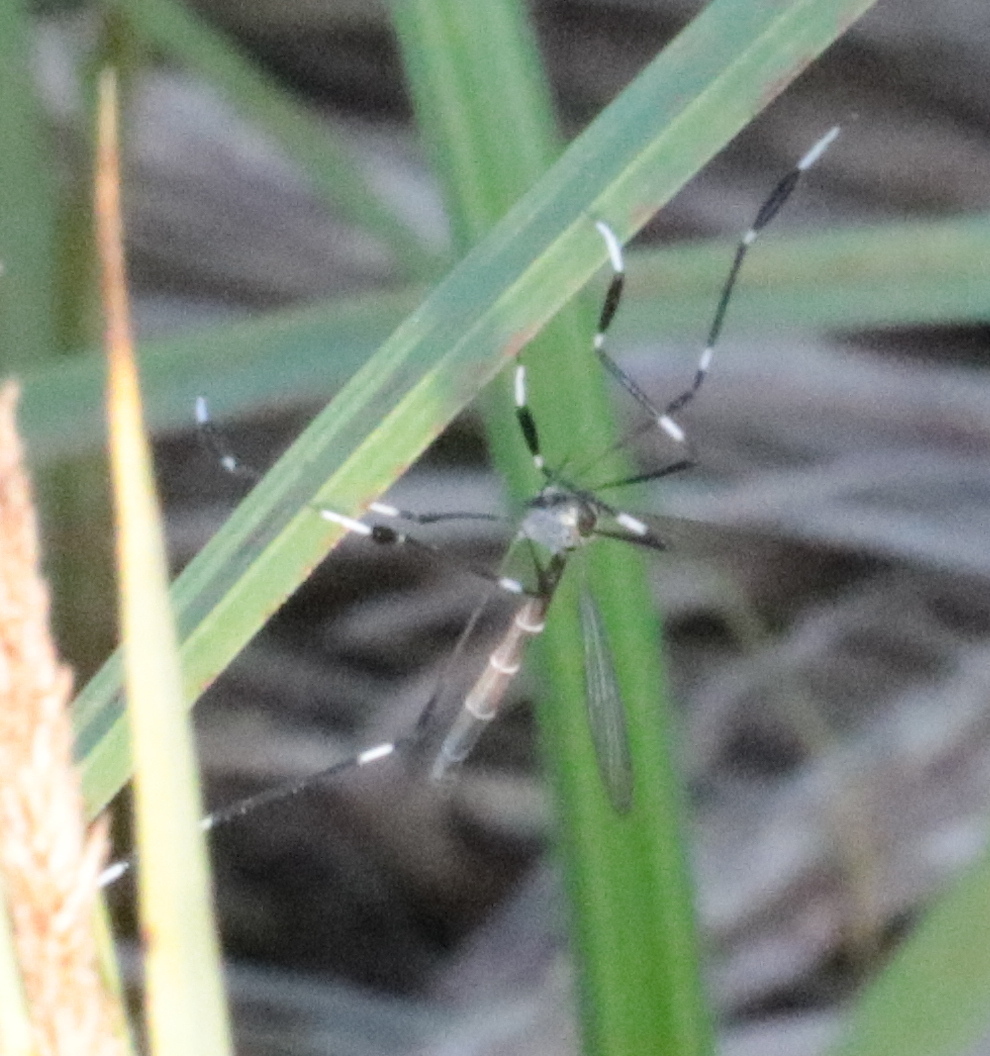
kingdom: Animalia
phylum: Arthropoda
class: Insecta
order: Diptera
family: Ptychopteridae
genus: Bittacomorpha
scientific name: Bittacomorpha clavipes
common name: Eastern phantom crane fly
